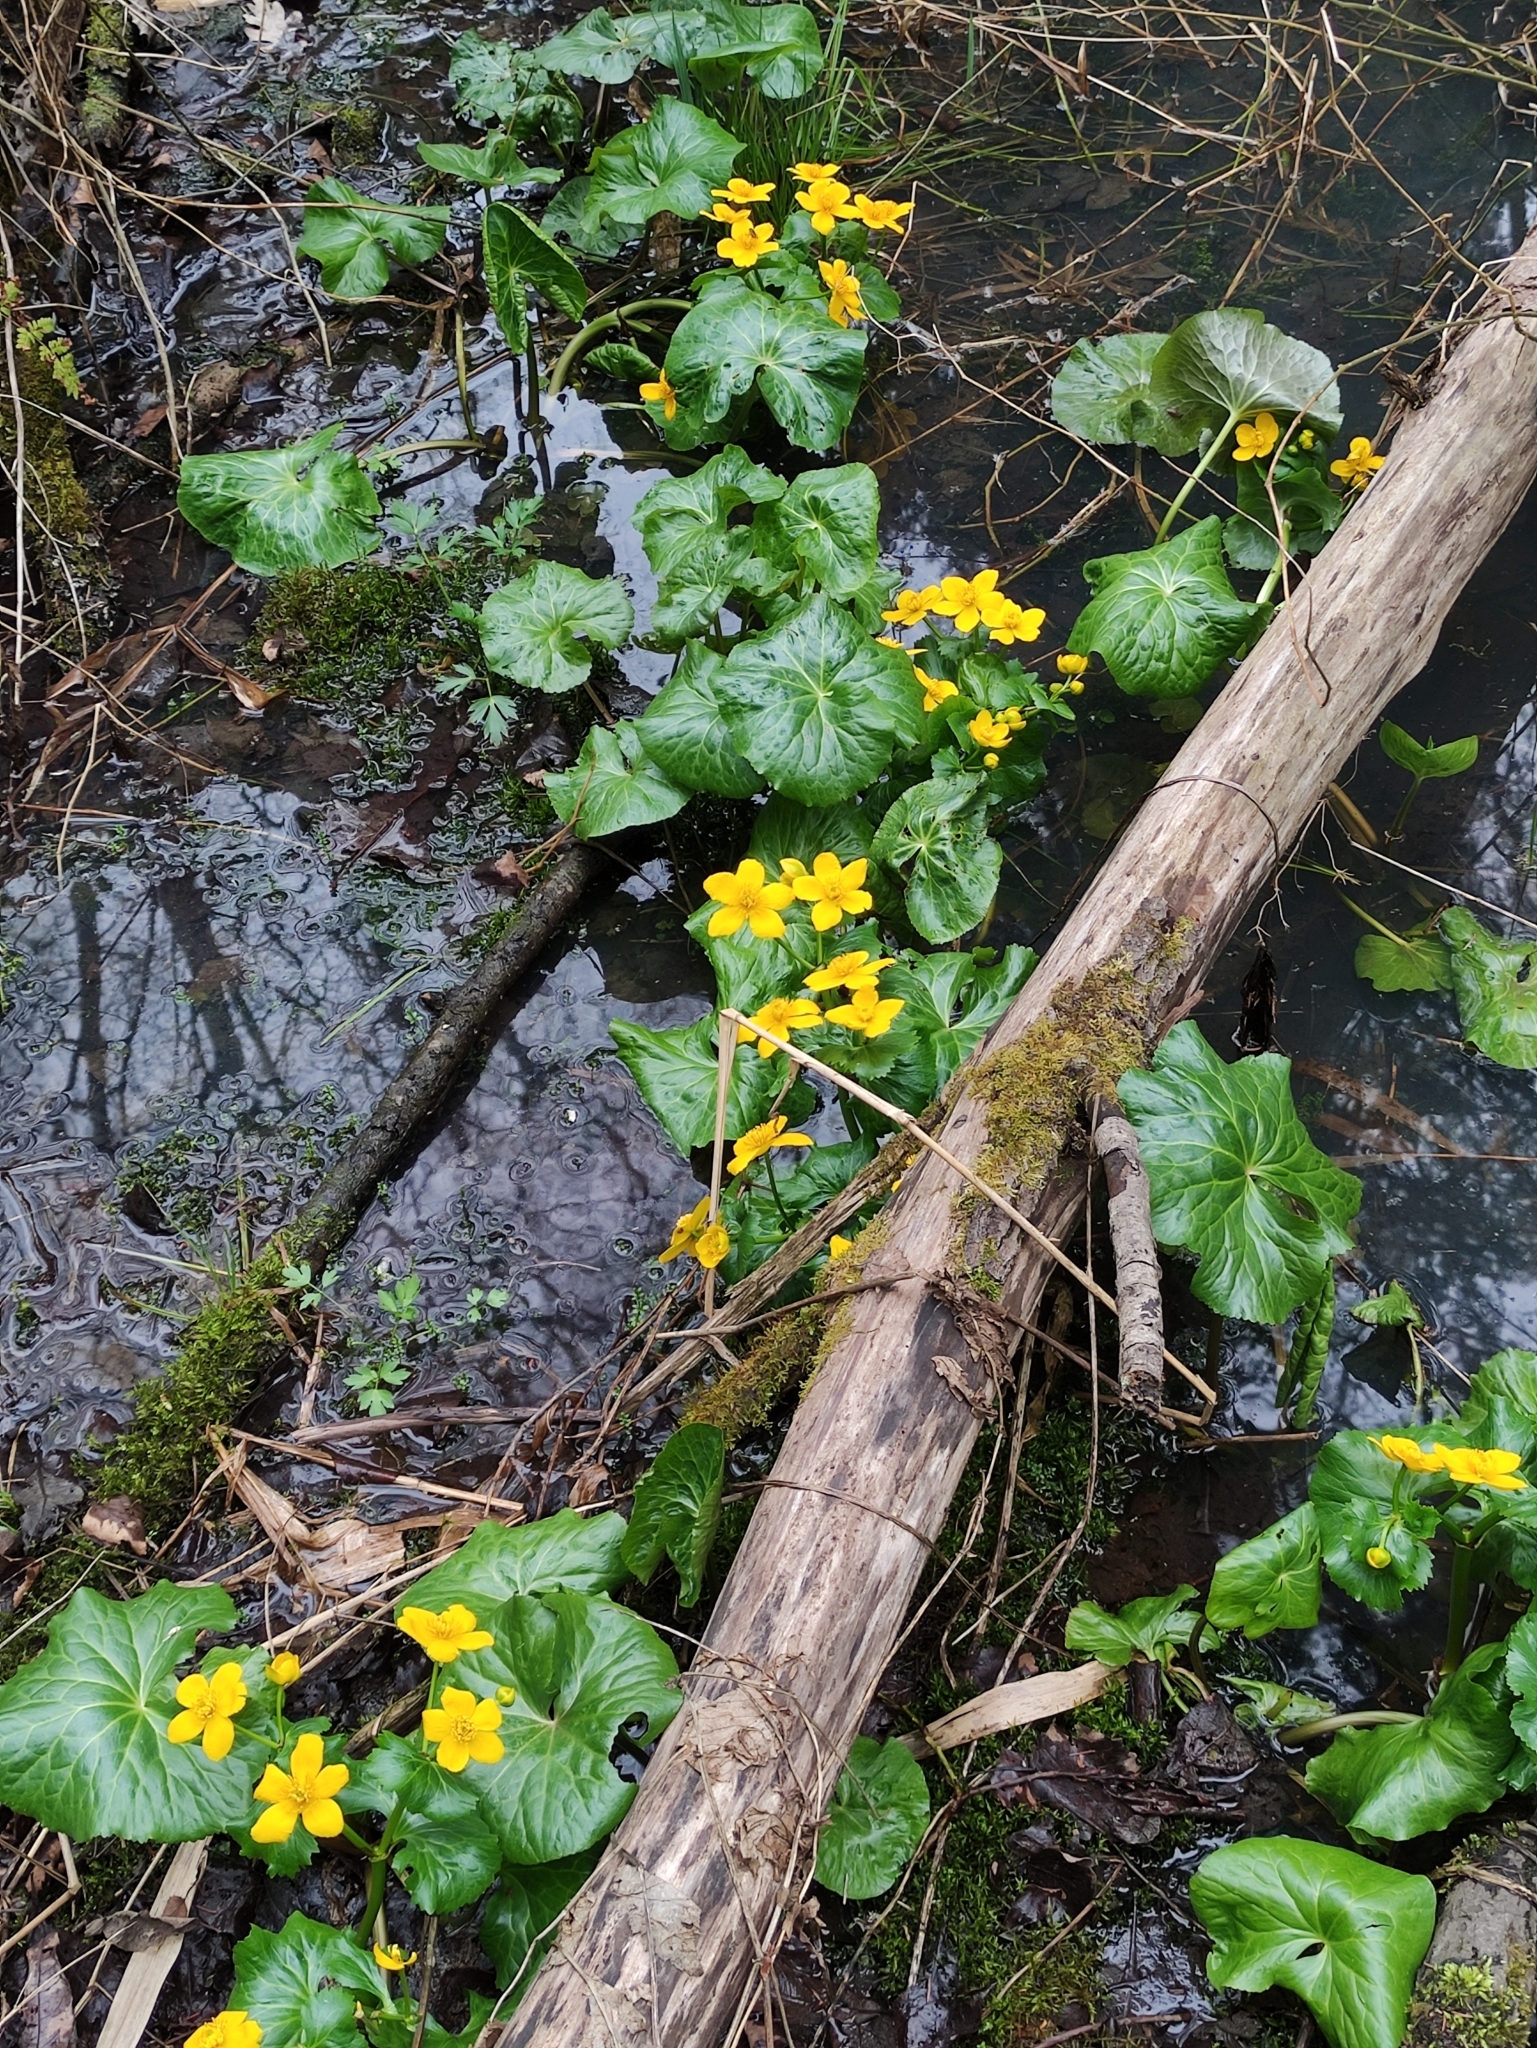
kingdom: Plantae
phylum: Tracheophyta
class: Magnoliopsida
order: Ranunculales
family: Ranunculaceae
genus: Caltha
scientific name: Caltha palustris
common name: Marsh marigold
